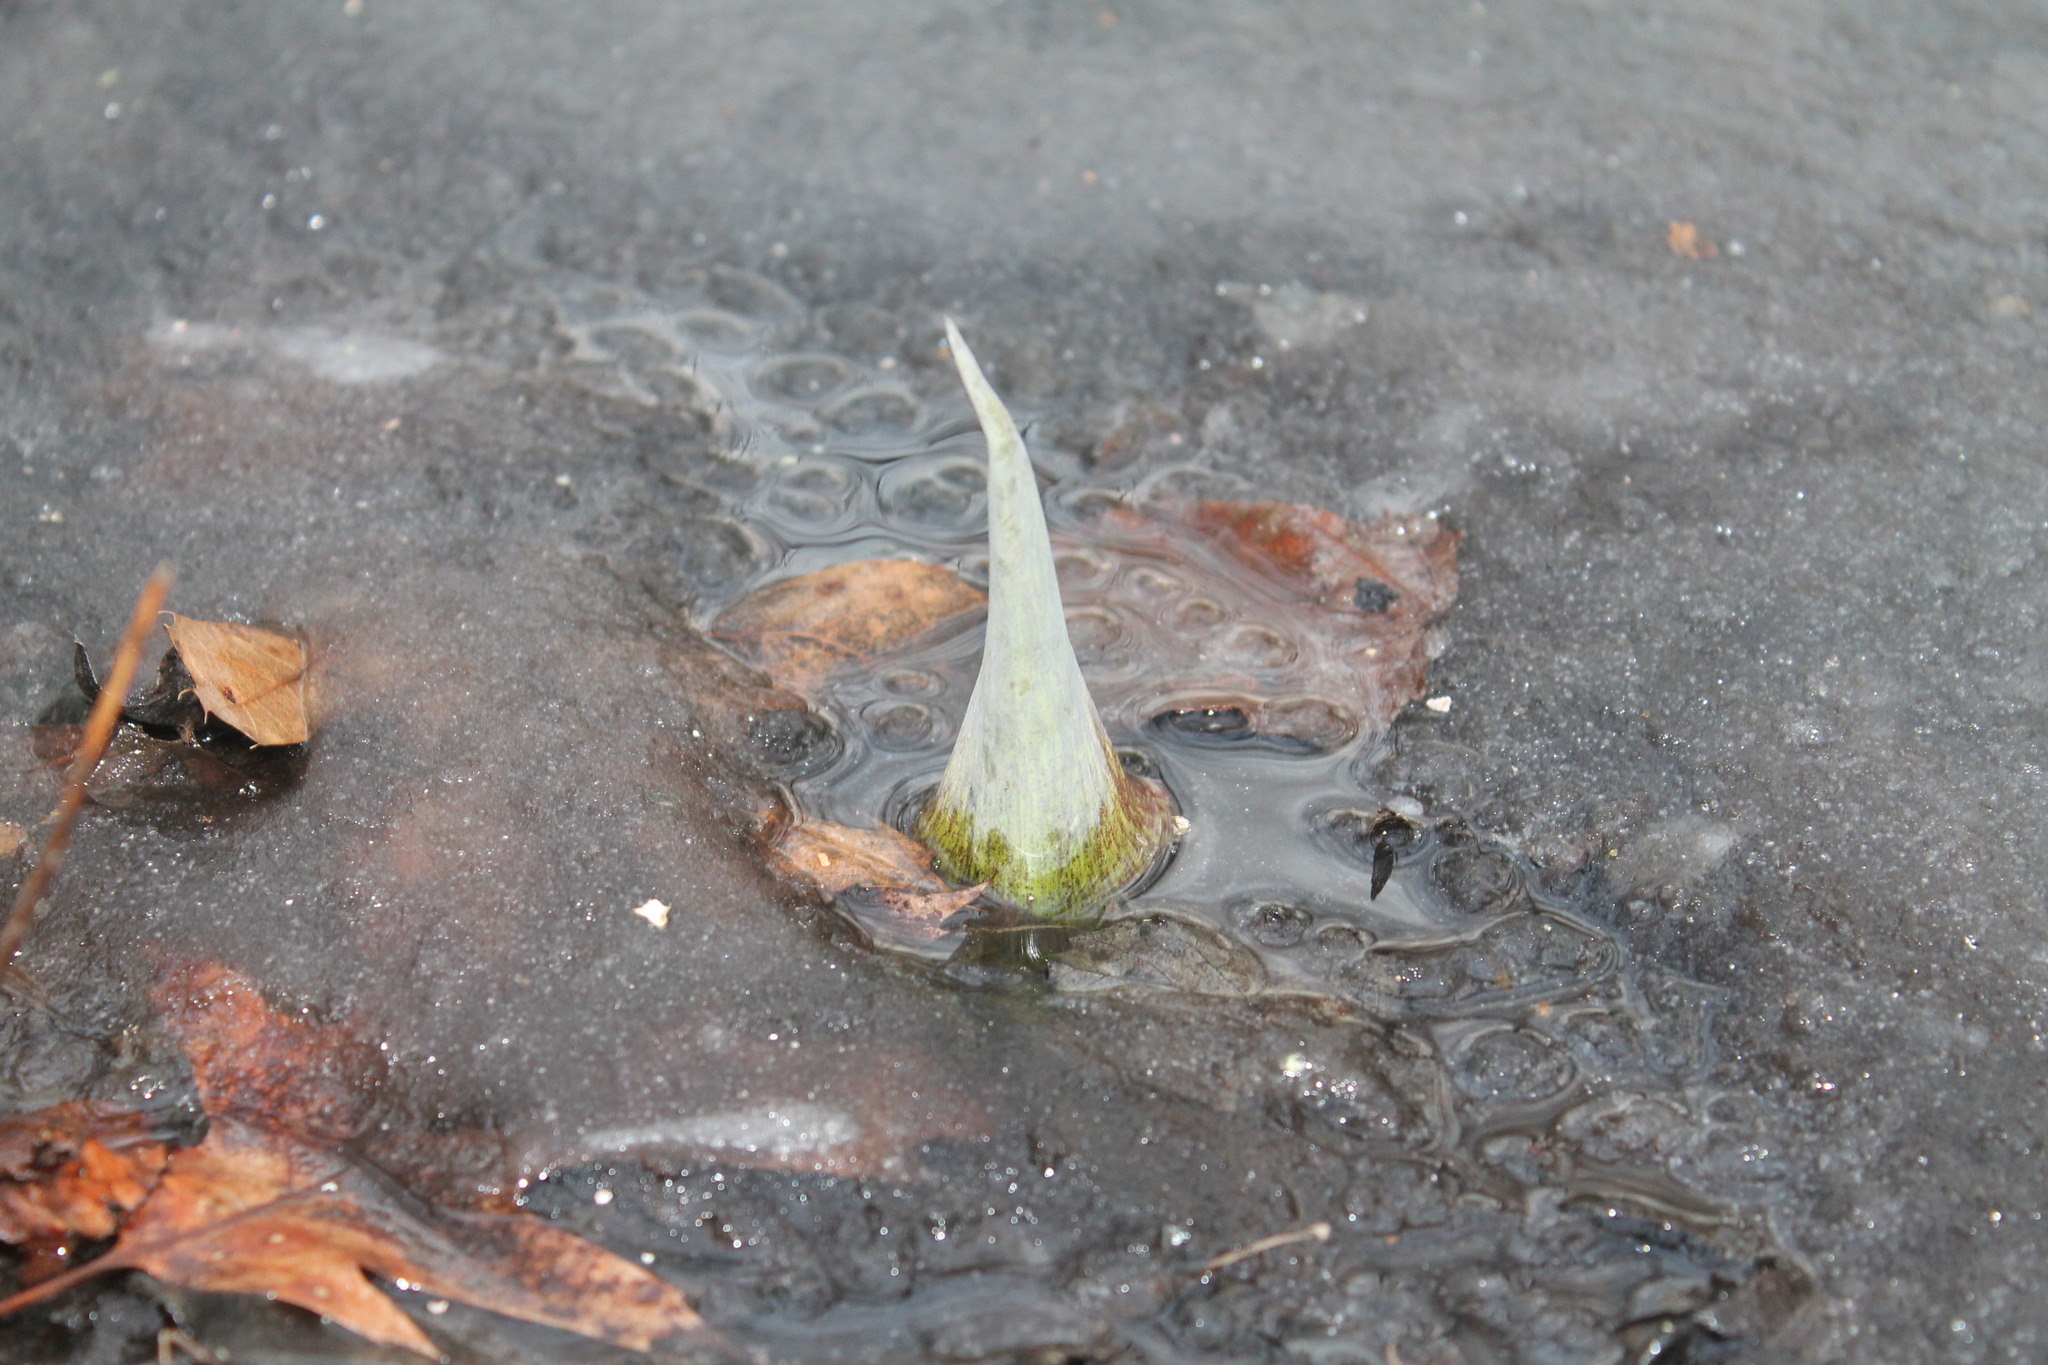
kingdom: Plantae
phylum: Tracheophyta
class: Liliopsida
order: Alismatales
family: Araceae
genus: Symplocarpus
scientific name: Symplocarpus foetidus
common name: Eastern skunk cabbage
